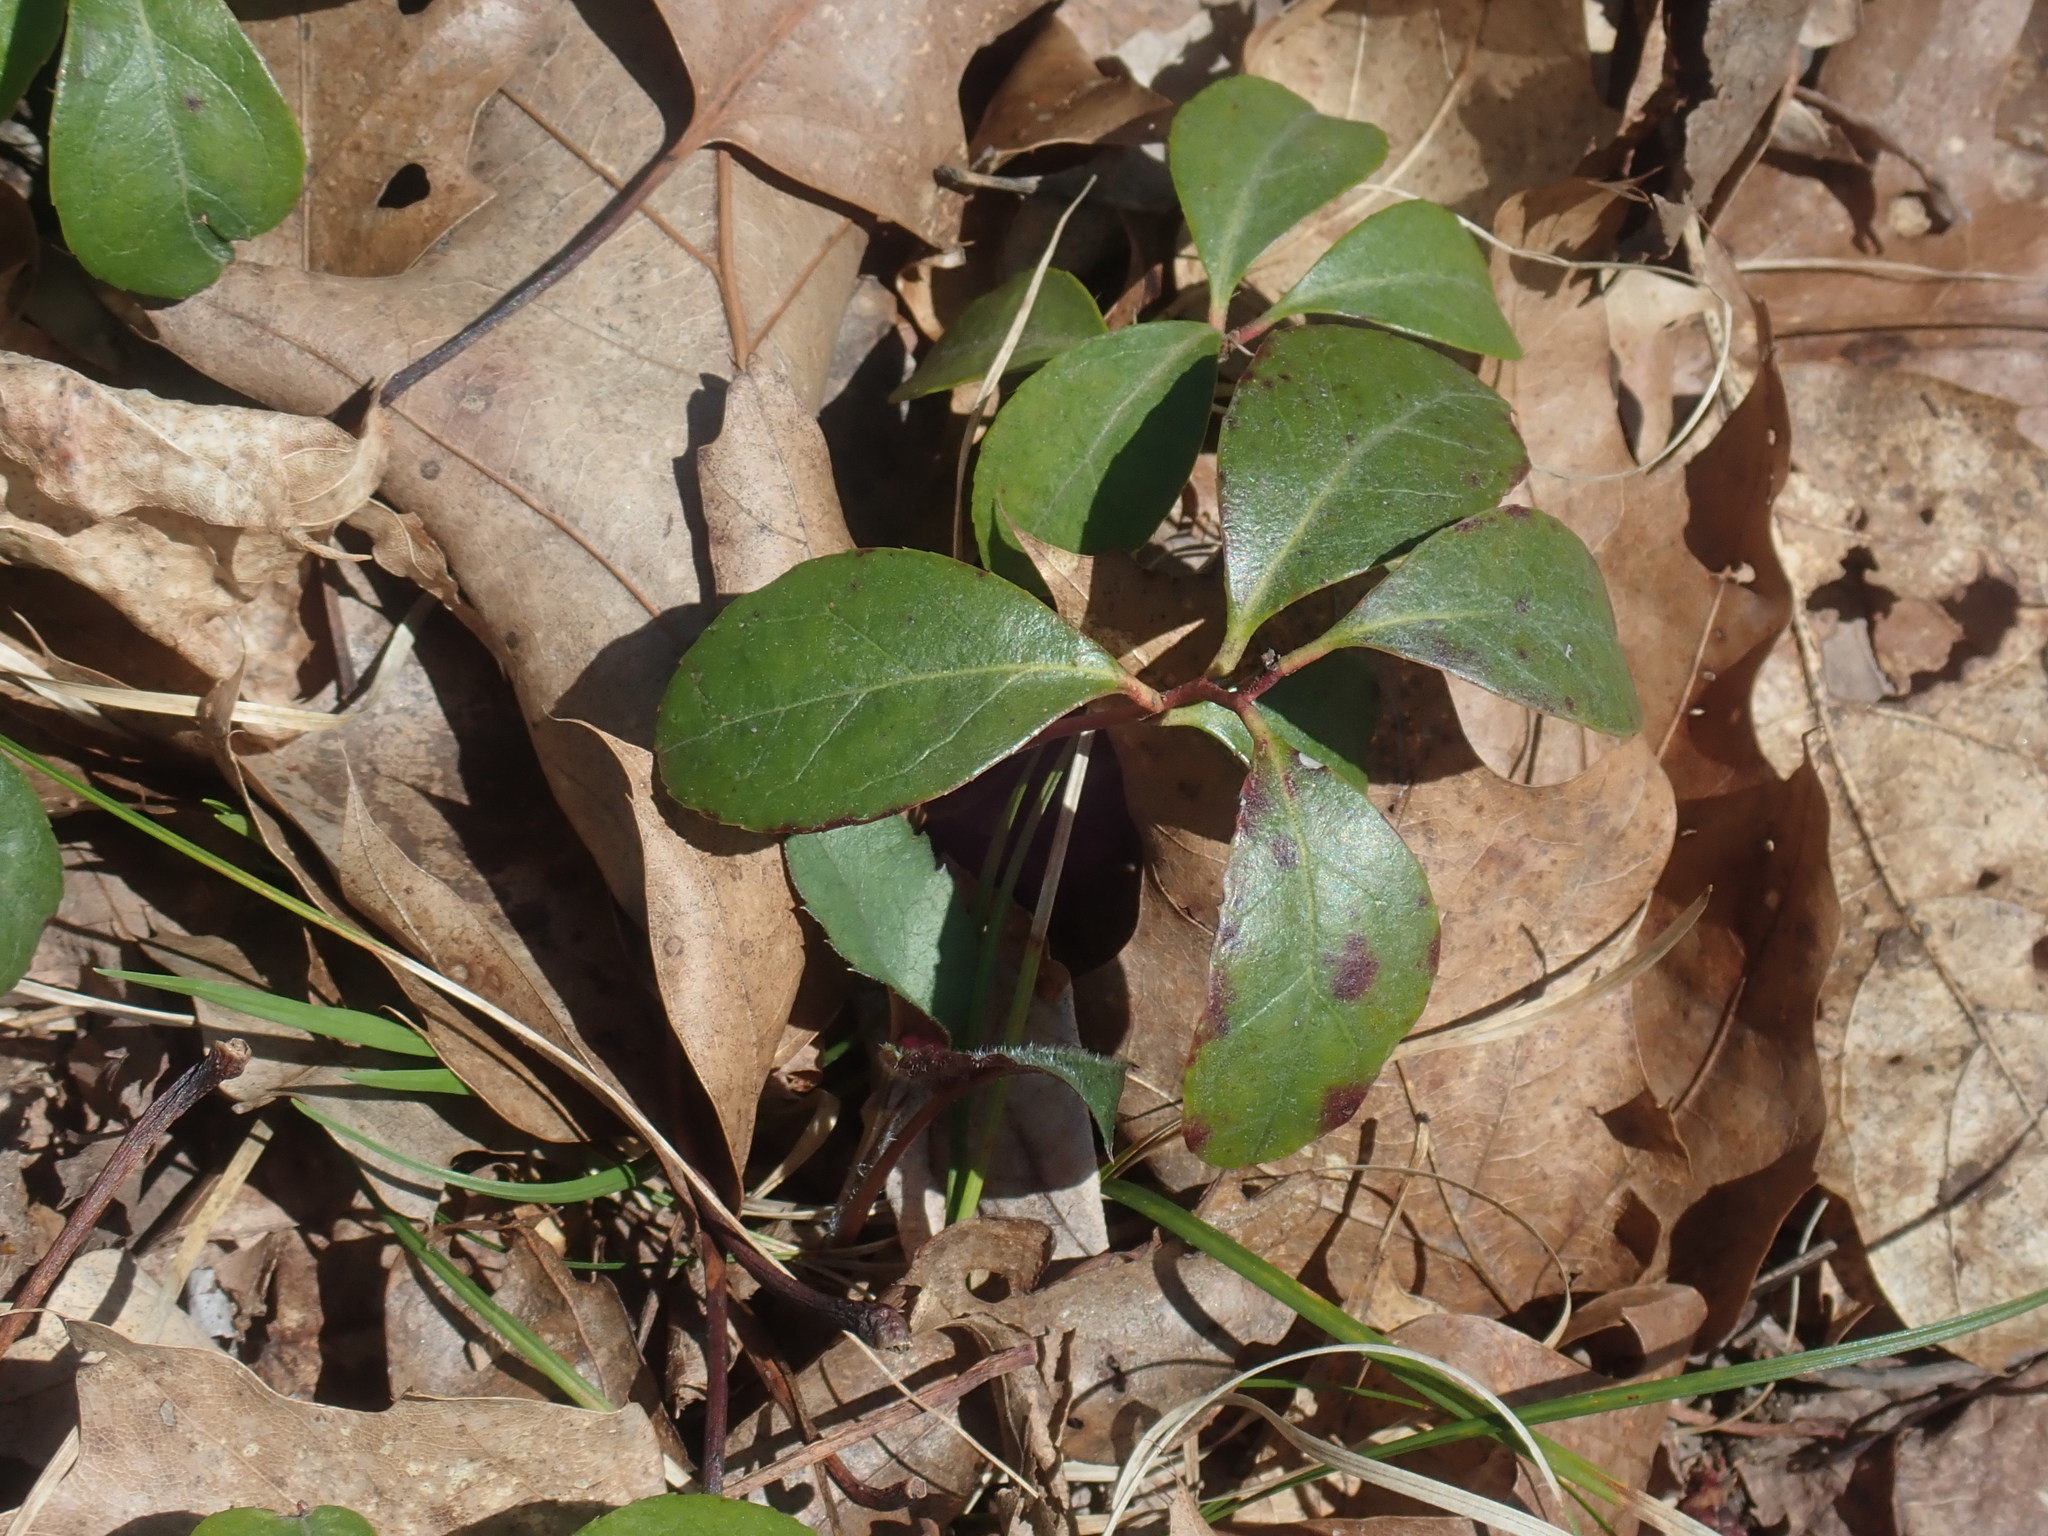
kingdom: Plantae
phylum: Tracheophyta
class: Magnoliopsida
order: Ericales
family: Ericaceae
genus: Gaultheria
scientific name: Gaultheria procumbens
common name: Checkerberry
